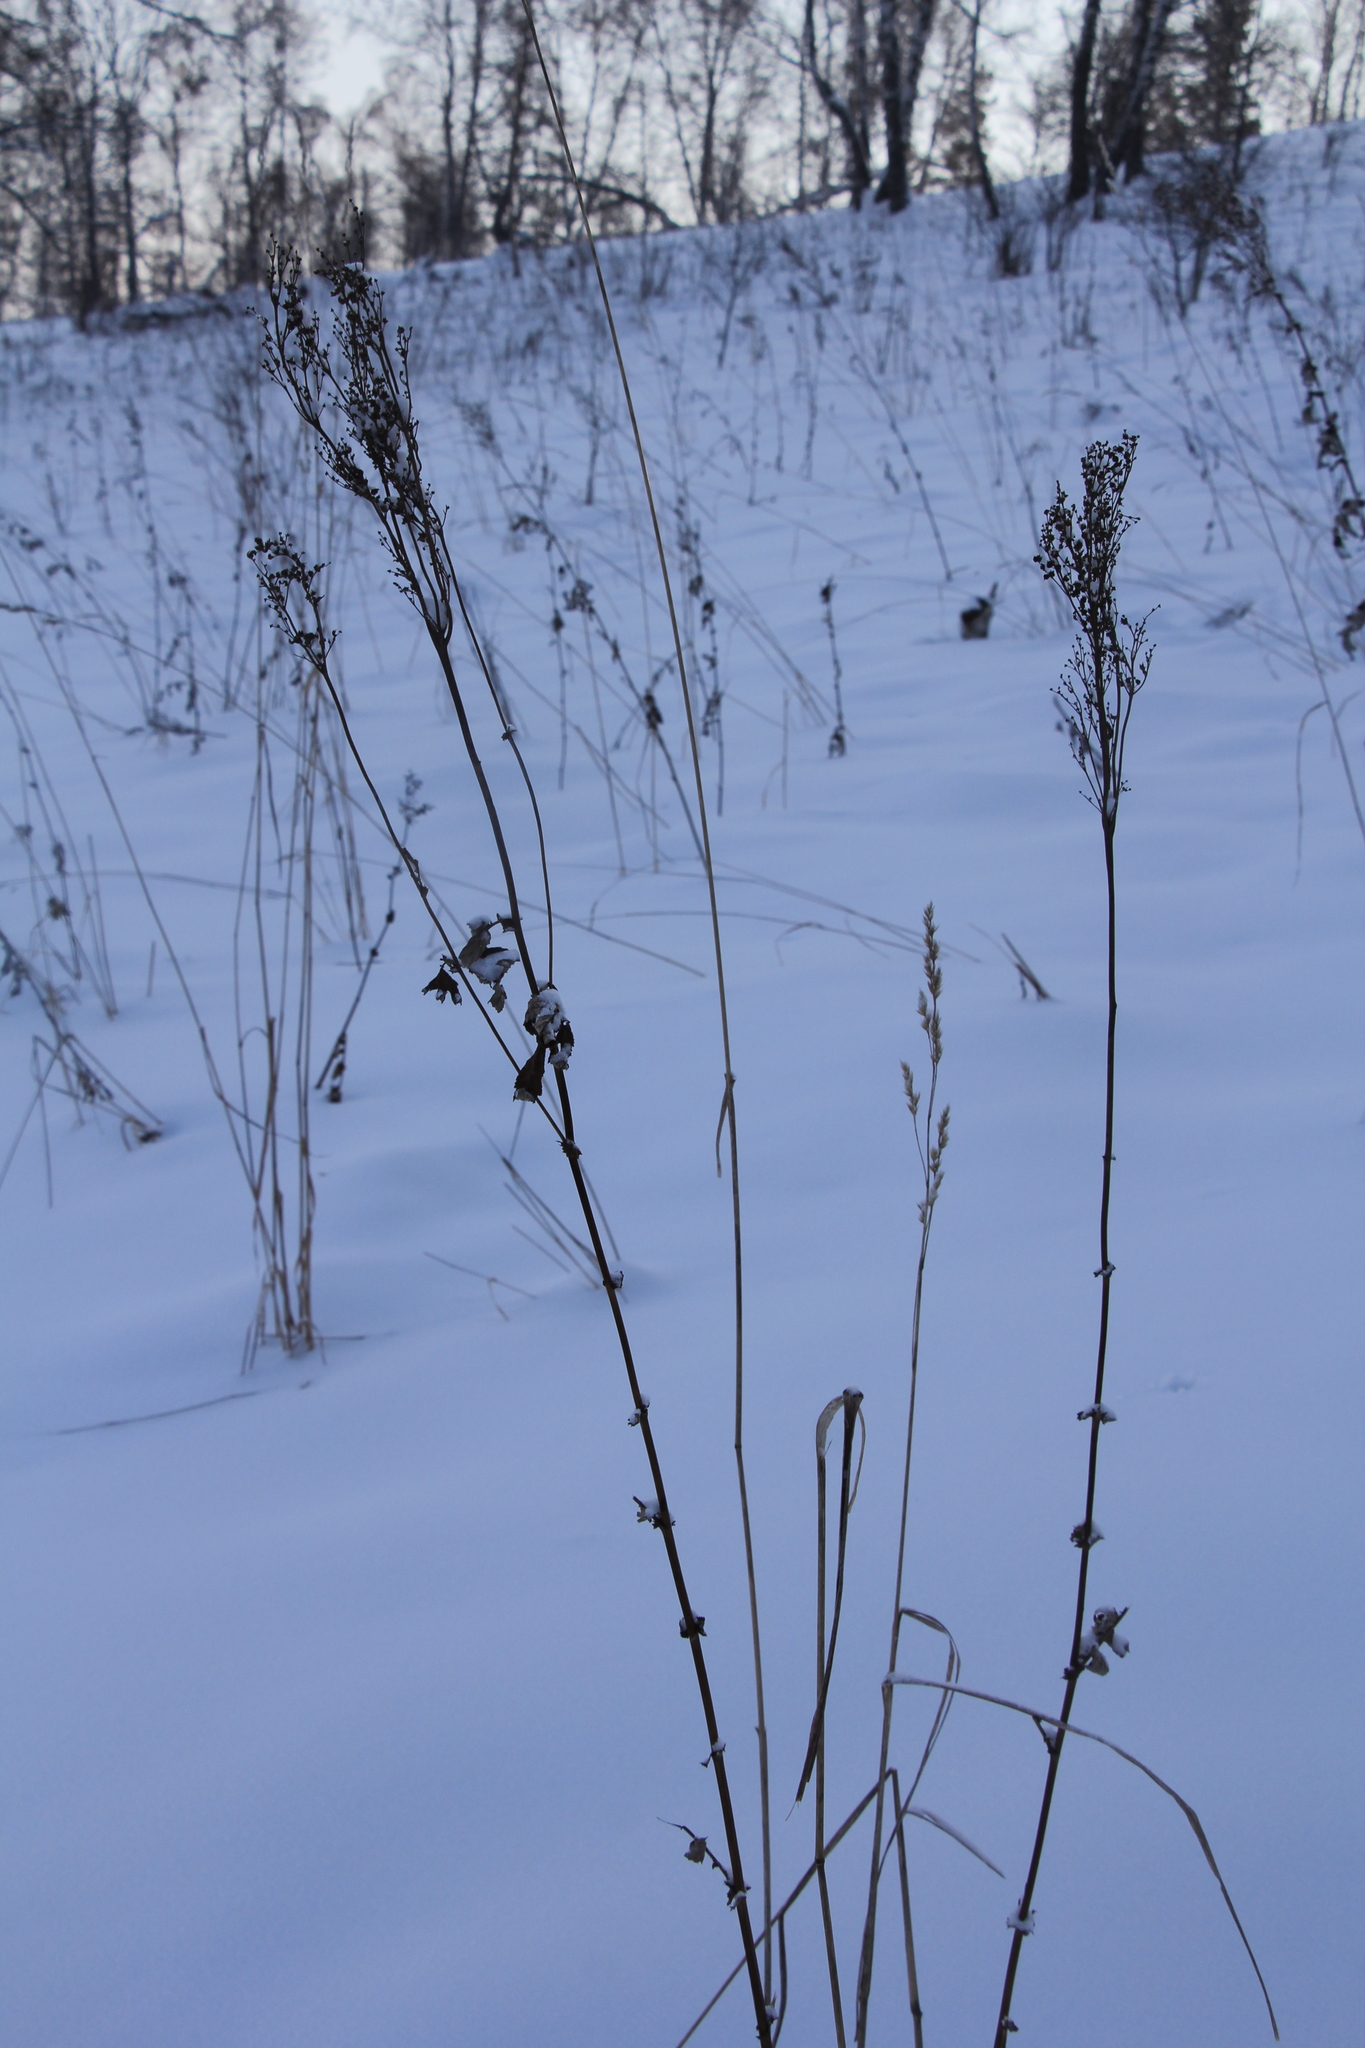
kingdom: Plantae
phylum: Tracheophyta
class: Magnoliopsida
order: Rosales
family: Rosaceae
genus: Filipendula
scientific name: Filipendula ulmaria
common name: Meadowsweet
